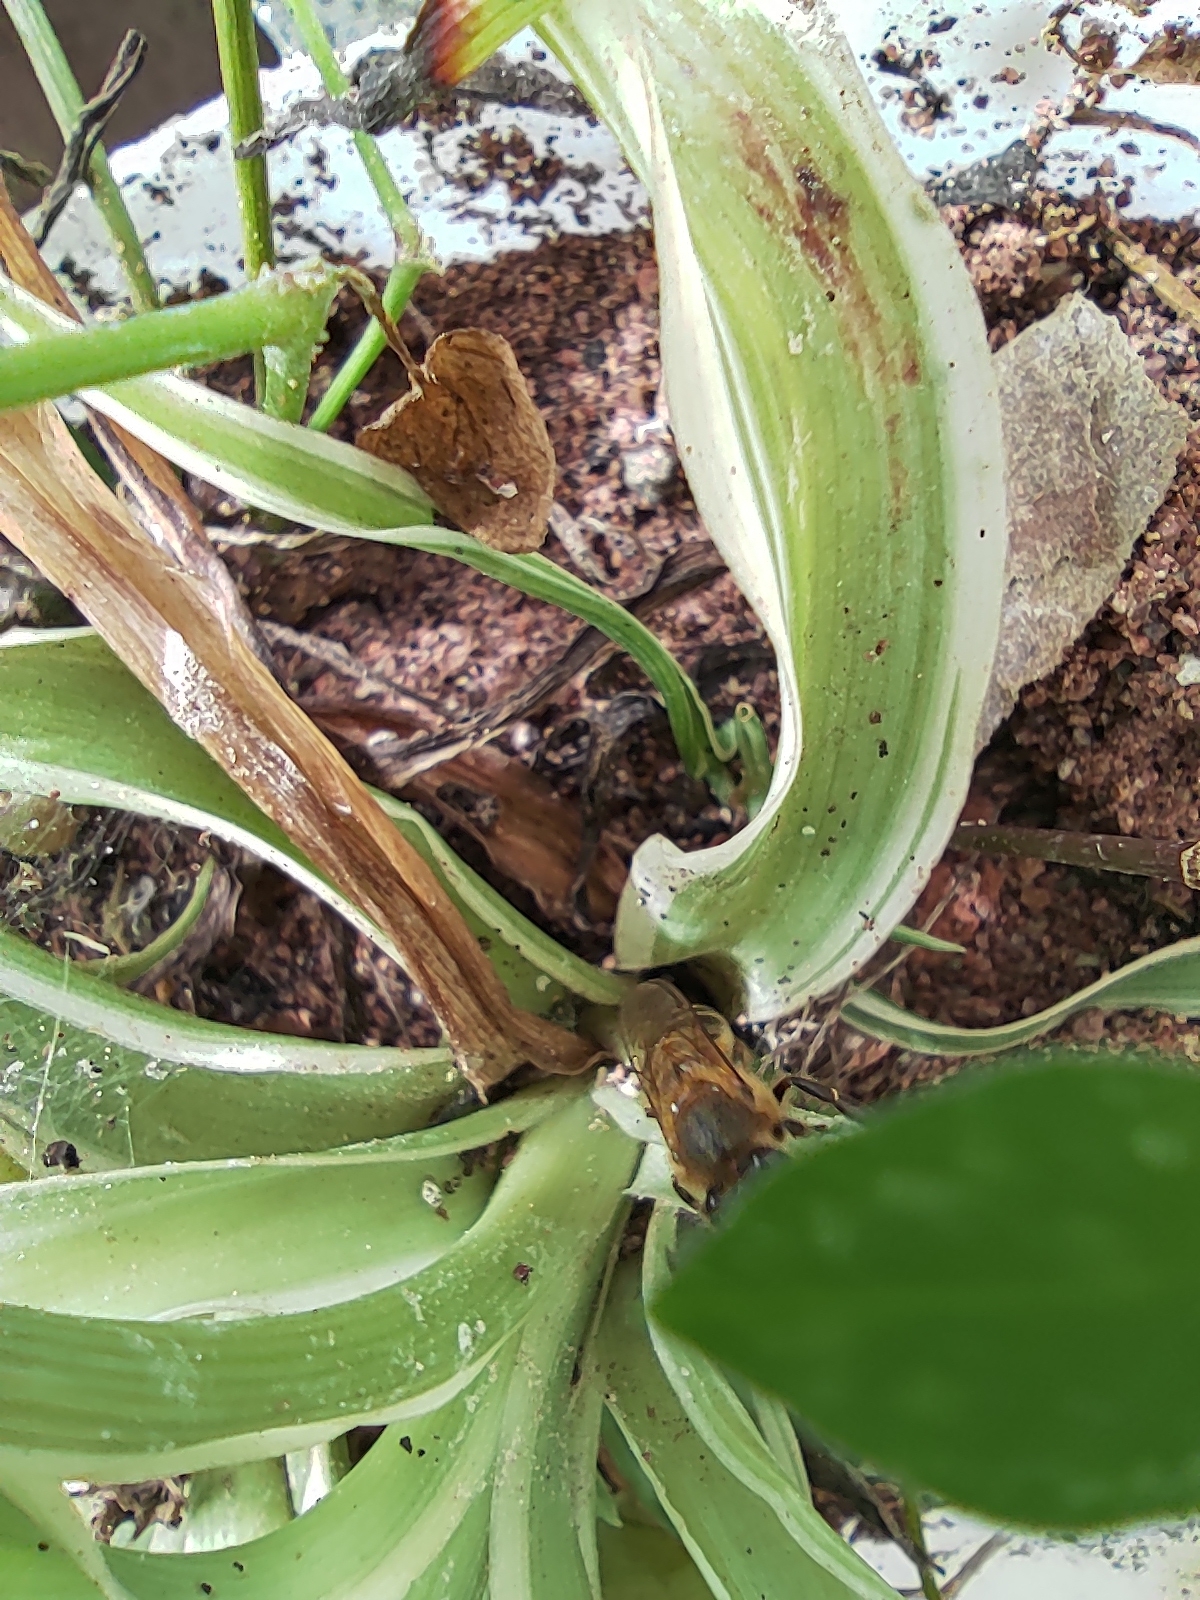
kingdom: Animalia
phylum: Arthropoda
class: Insecta
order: Hymenoptera
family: Apidae
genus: Apis
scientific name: Apis mellifera
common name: Honey bee
